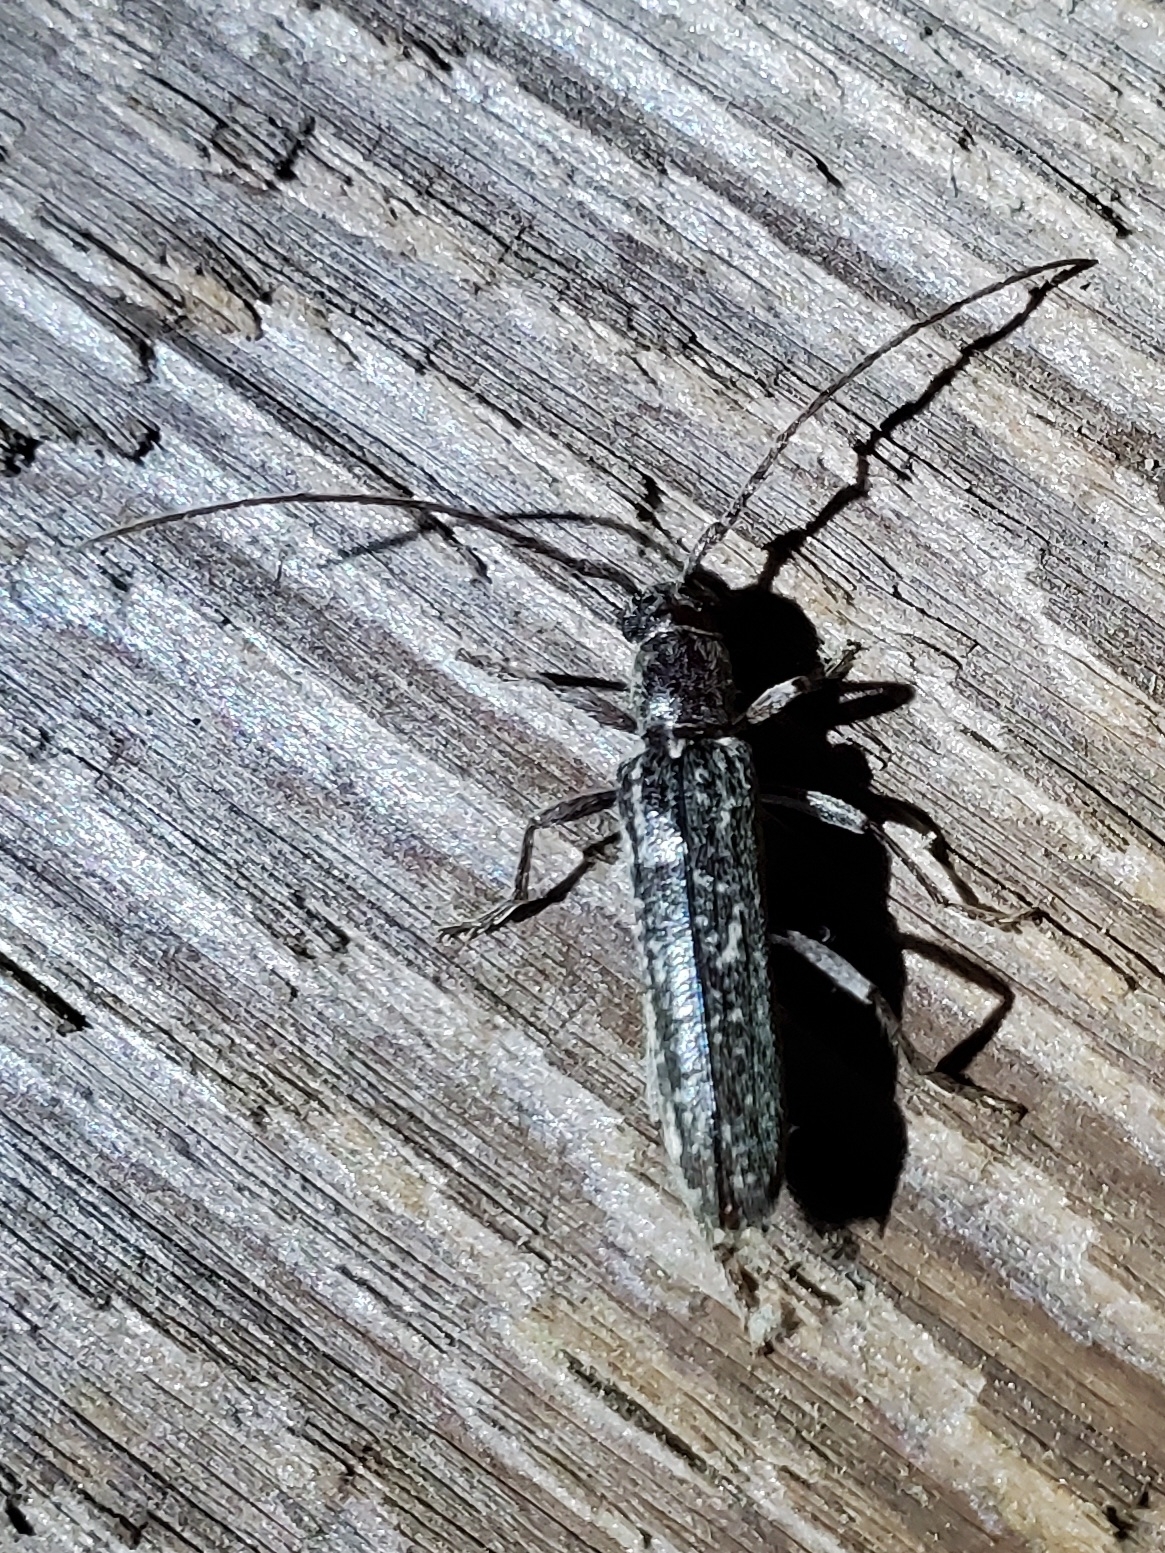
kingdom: Animalia
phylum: Arthropoda
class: Insecta
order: Coleoptera
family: Cerambycidae
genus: Anelaphus
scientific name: Anelaphus villosus
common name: Twig pruner
